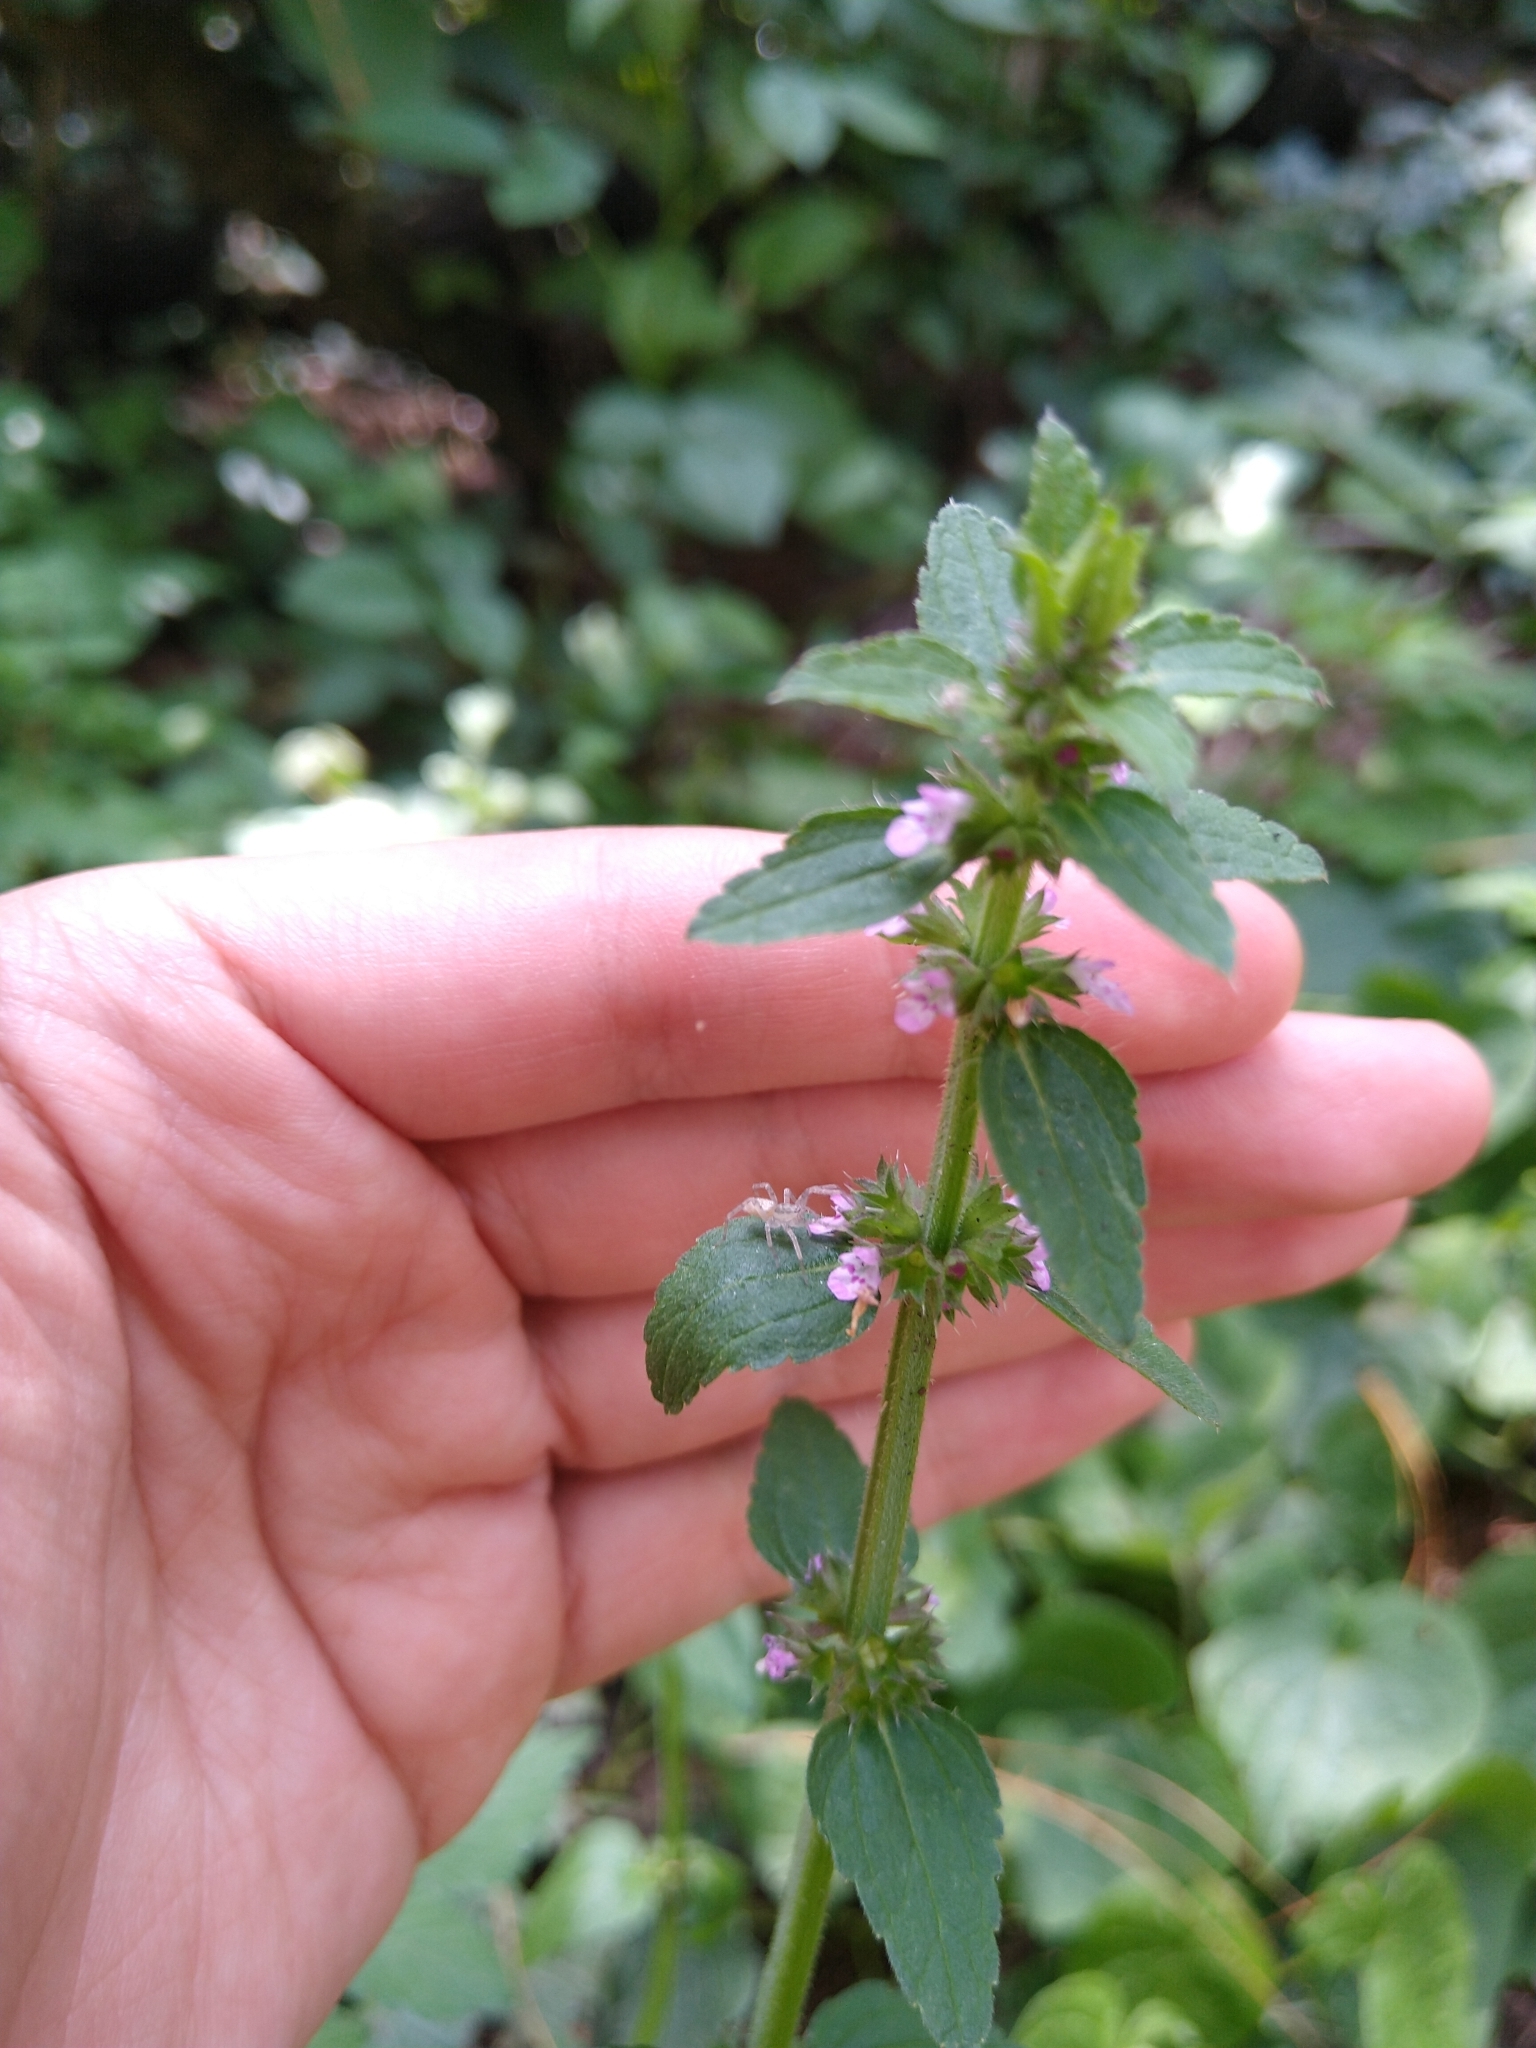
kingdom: Plantae
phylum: Tracheophyta
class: Magnoliopsida
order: Lamiales
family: Lamiaceae
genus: Stachys
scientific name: Stachys agraria
